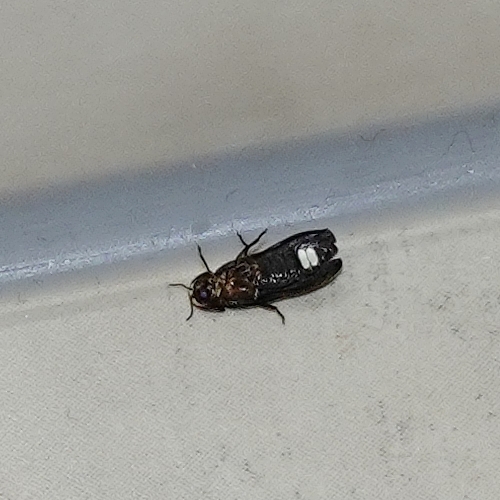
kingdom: Animalia
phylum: Arthropoda
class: Insecta
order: Coleoptera
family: Lampyridae
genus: Lamprohiza
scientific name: Lamprohiza splendidula
